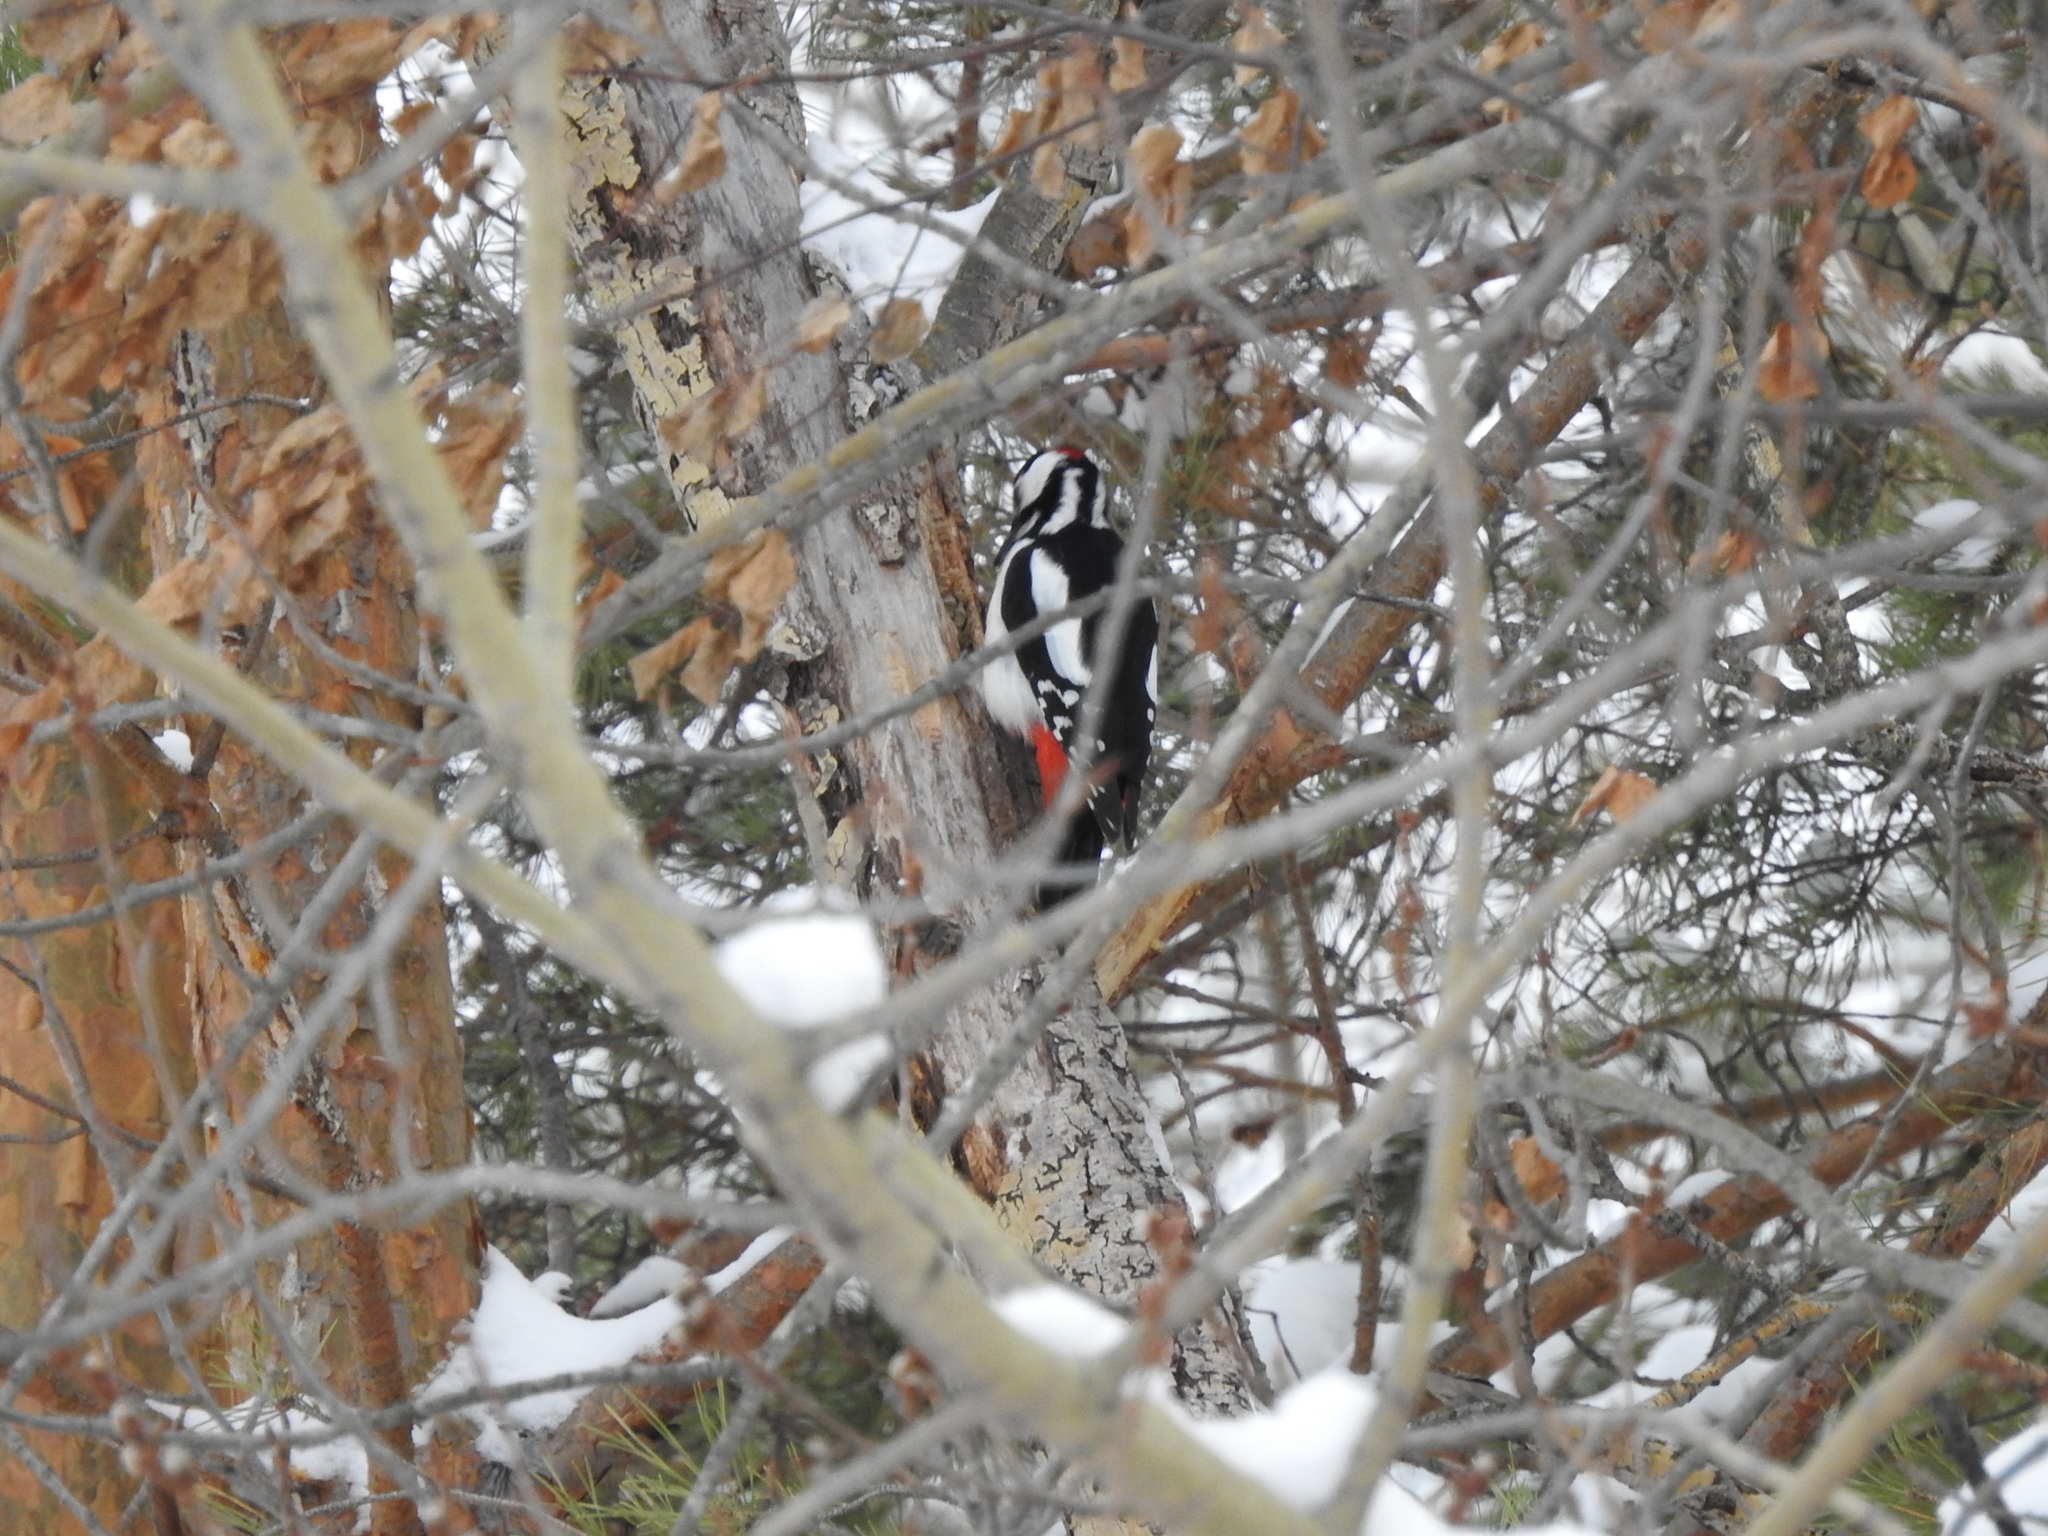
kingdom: Animalia
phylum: Chordata
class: Aves
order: Piciformes
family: Picidae
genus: Dendrocopos
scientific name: Dendrocopos major
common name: Great spotted woodpecker
